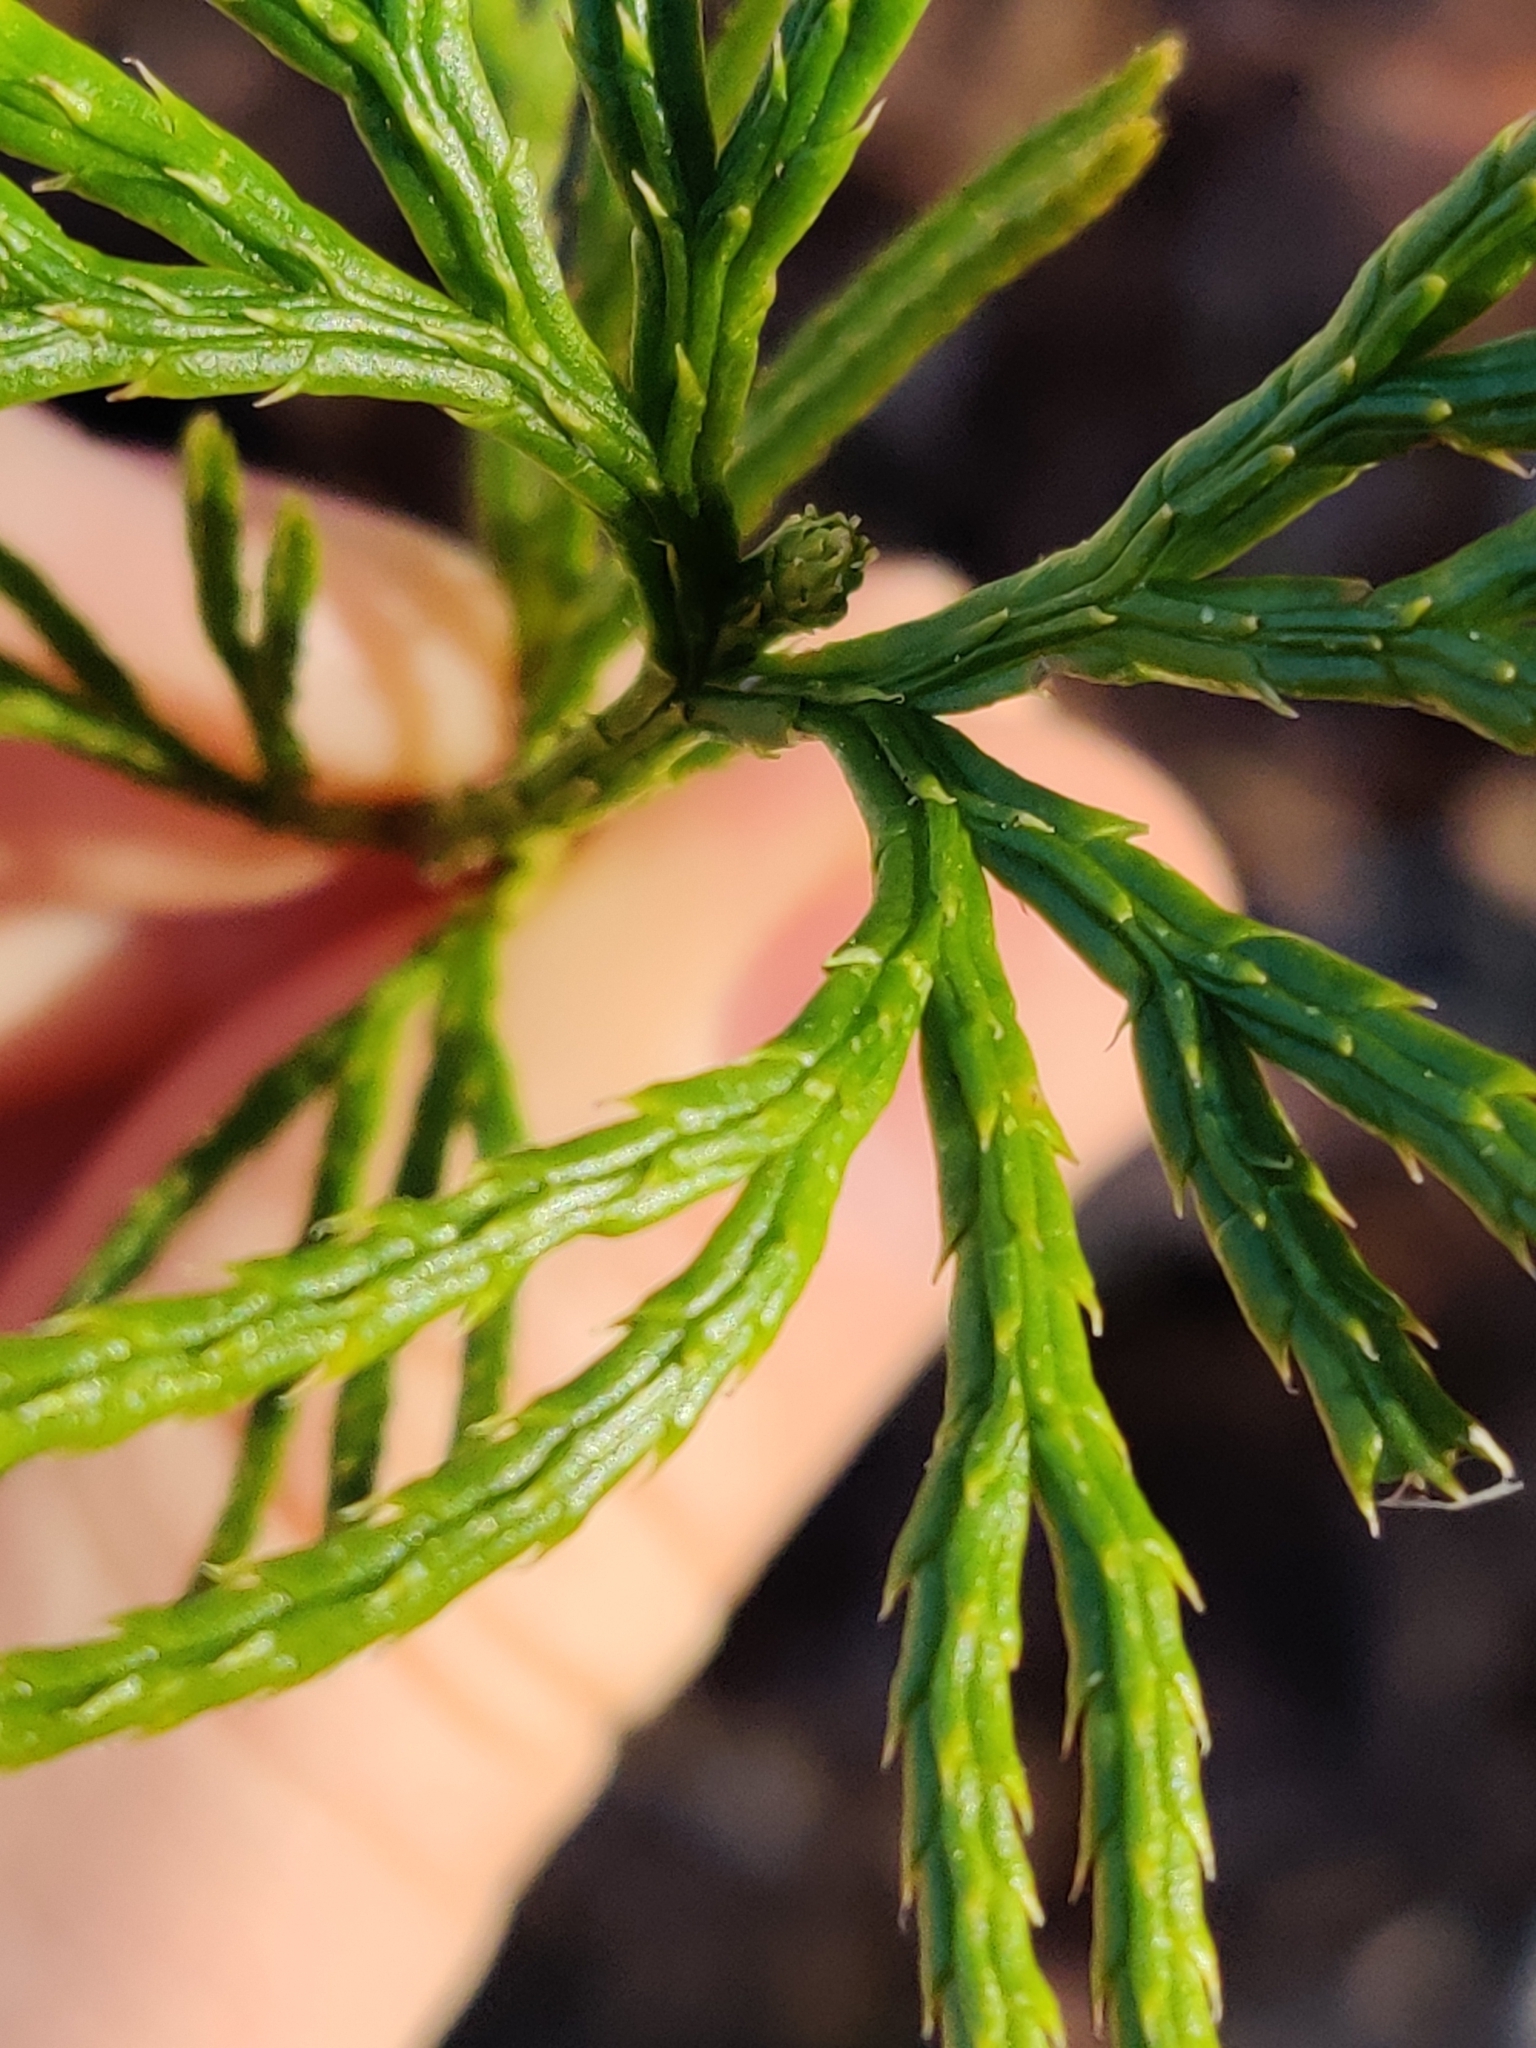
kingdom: Plantae
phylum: Tracheophyta
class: Lycopodiopsida
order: Lycopodiales
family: Lycopodiaceae
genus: Diphasiastrum
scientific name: Diphasiastrum digitatum
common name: Southern running-pine
